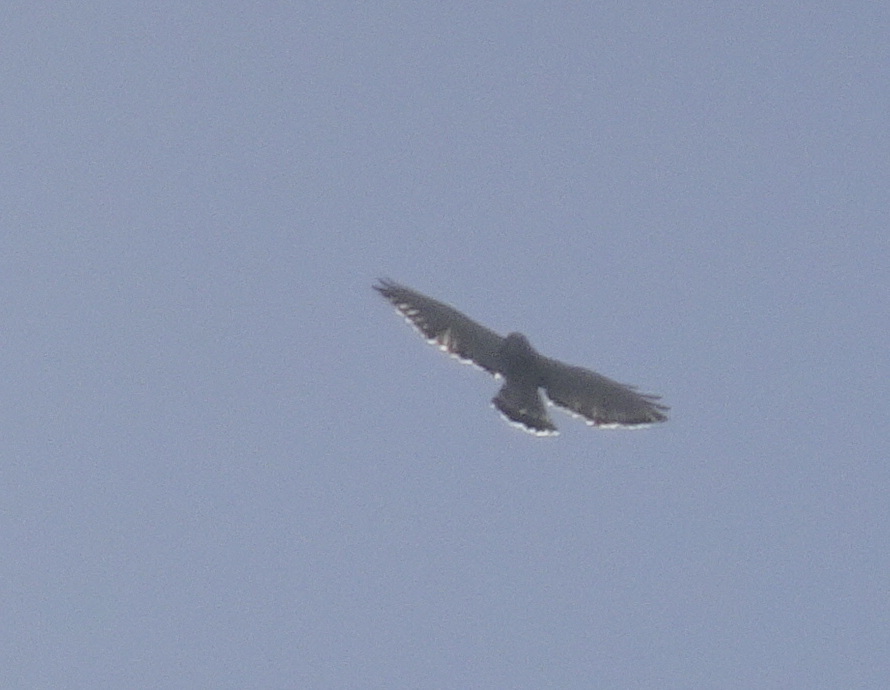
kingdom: Animalia
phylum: Chordata
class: Aves
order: Accipitriformes
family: Accipitridae
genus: Buteo
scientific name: Buteo platypterus
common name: Broad-winged hawk
